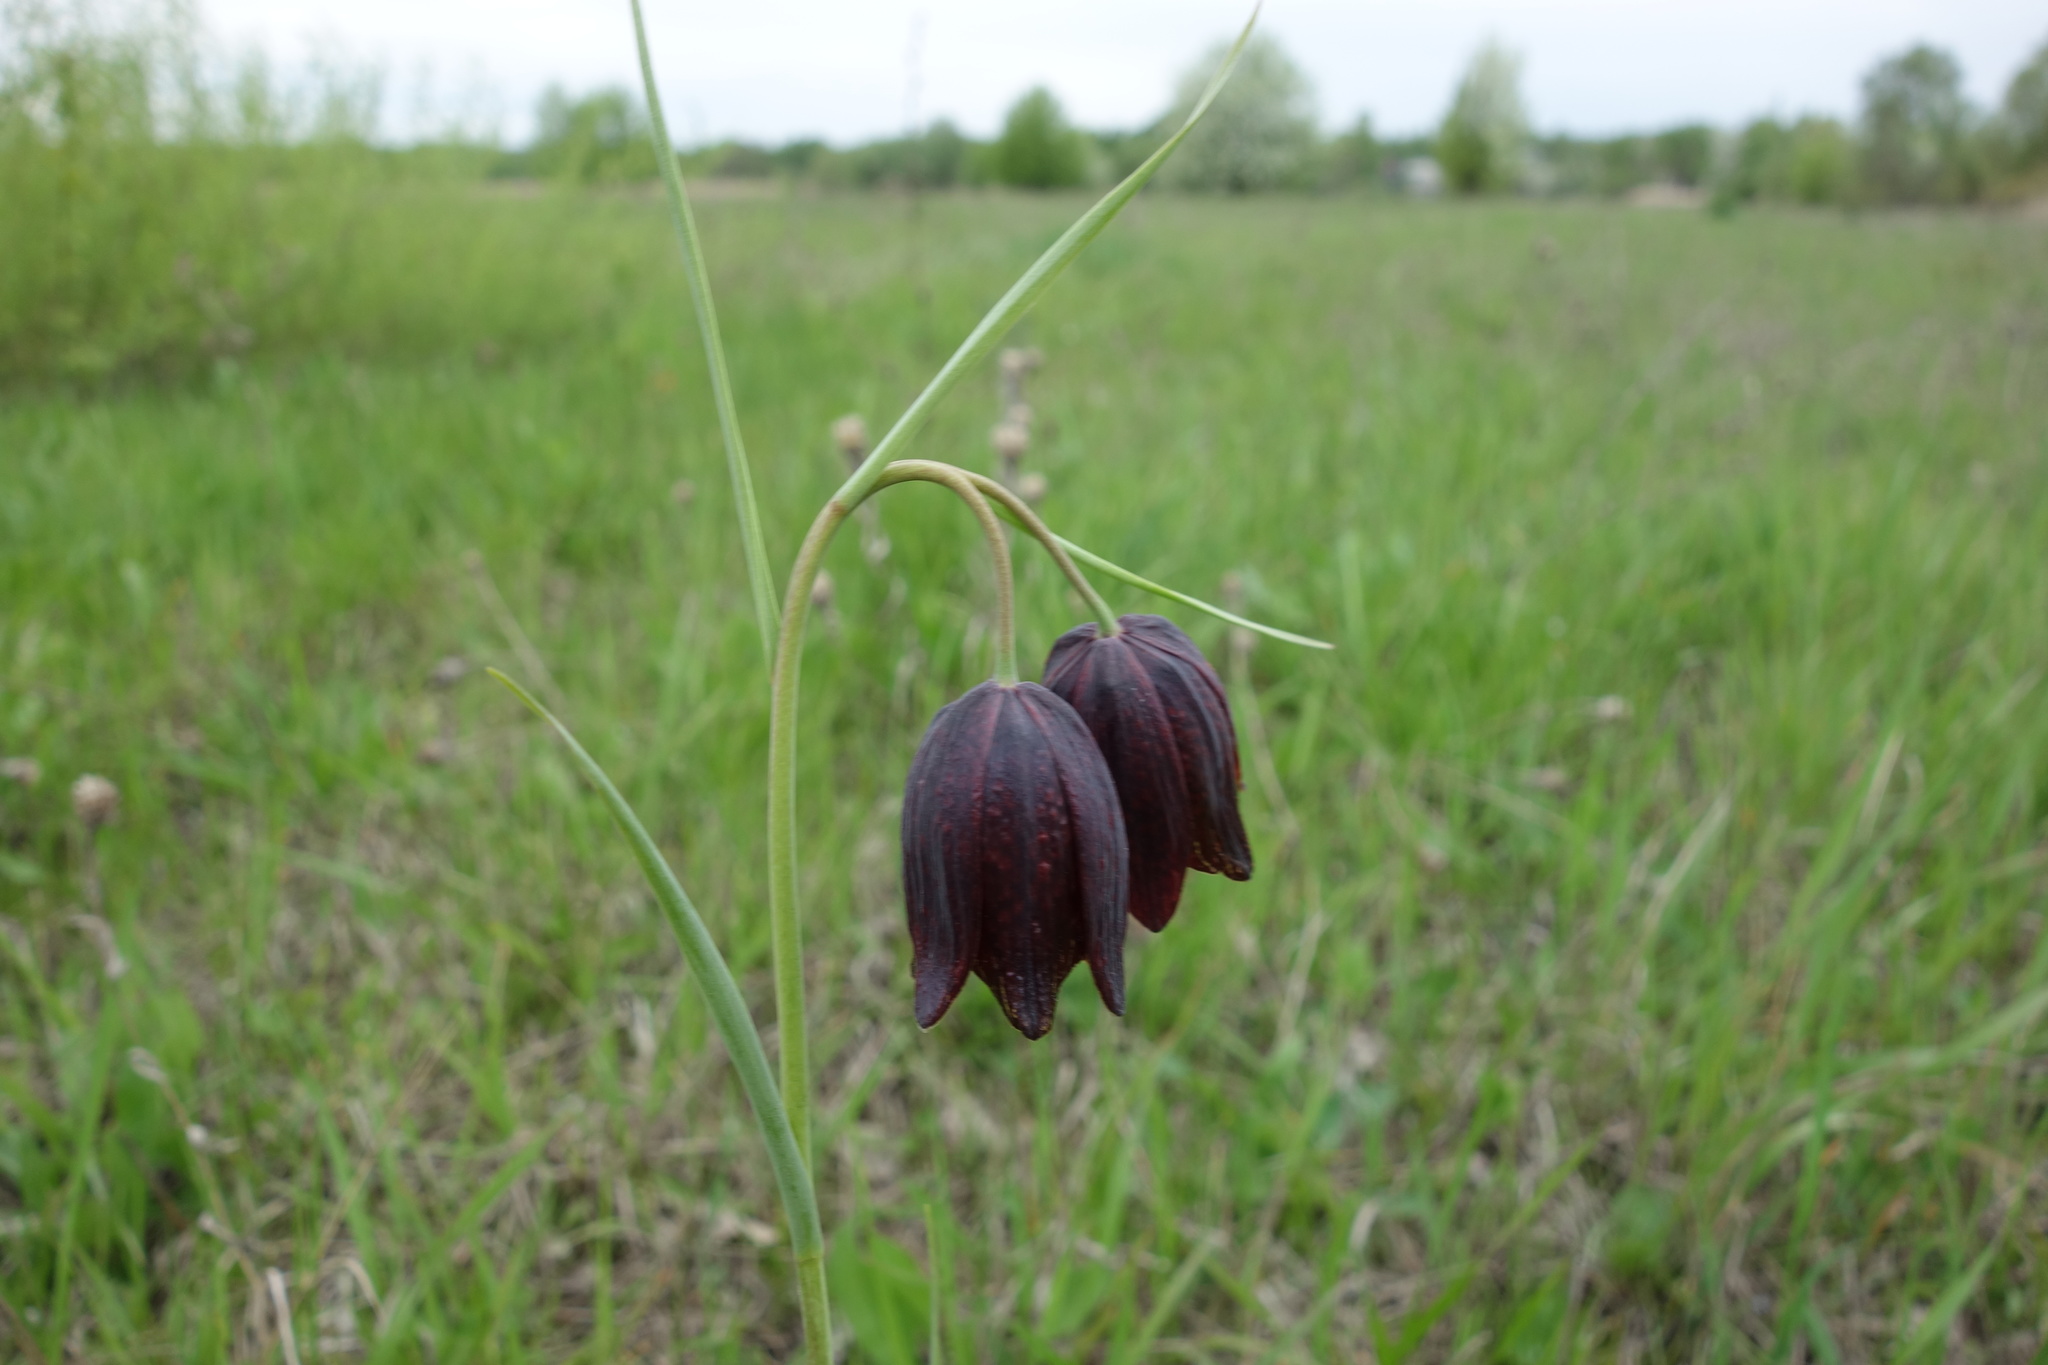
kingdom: Plantae
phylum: Tracheophyta
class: Liliopsida
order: Liliales
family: Liliaceae
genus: Fritillaria
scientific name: Fritillaria meleagroides
